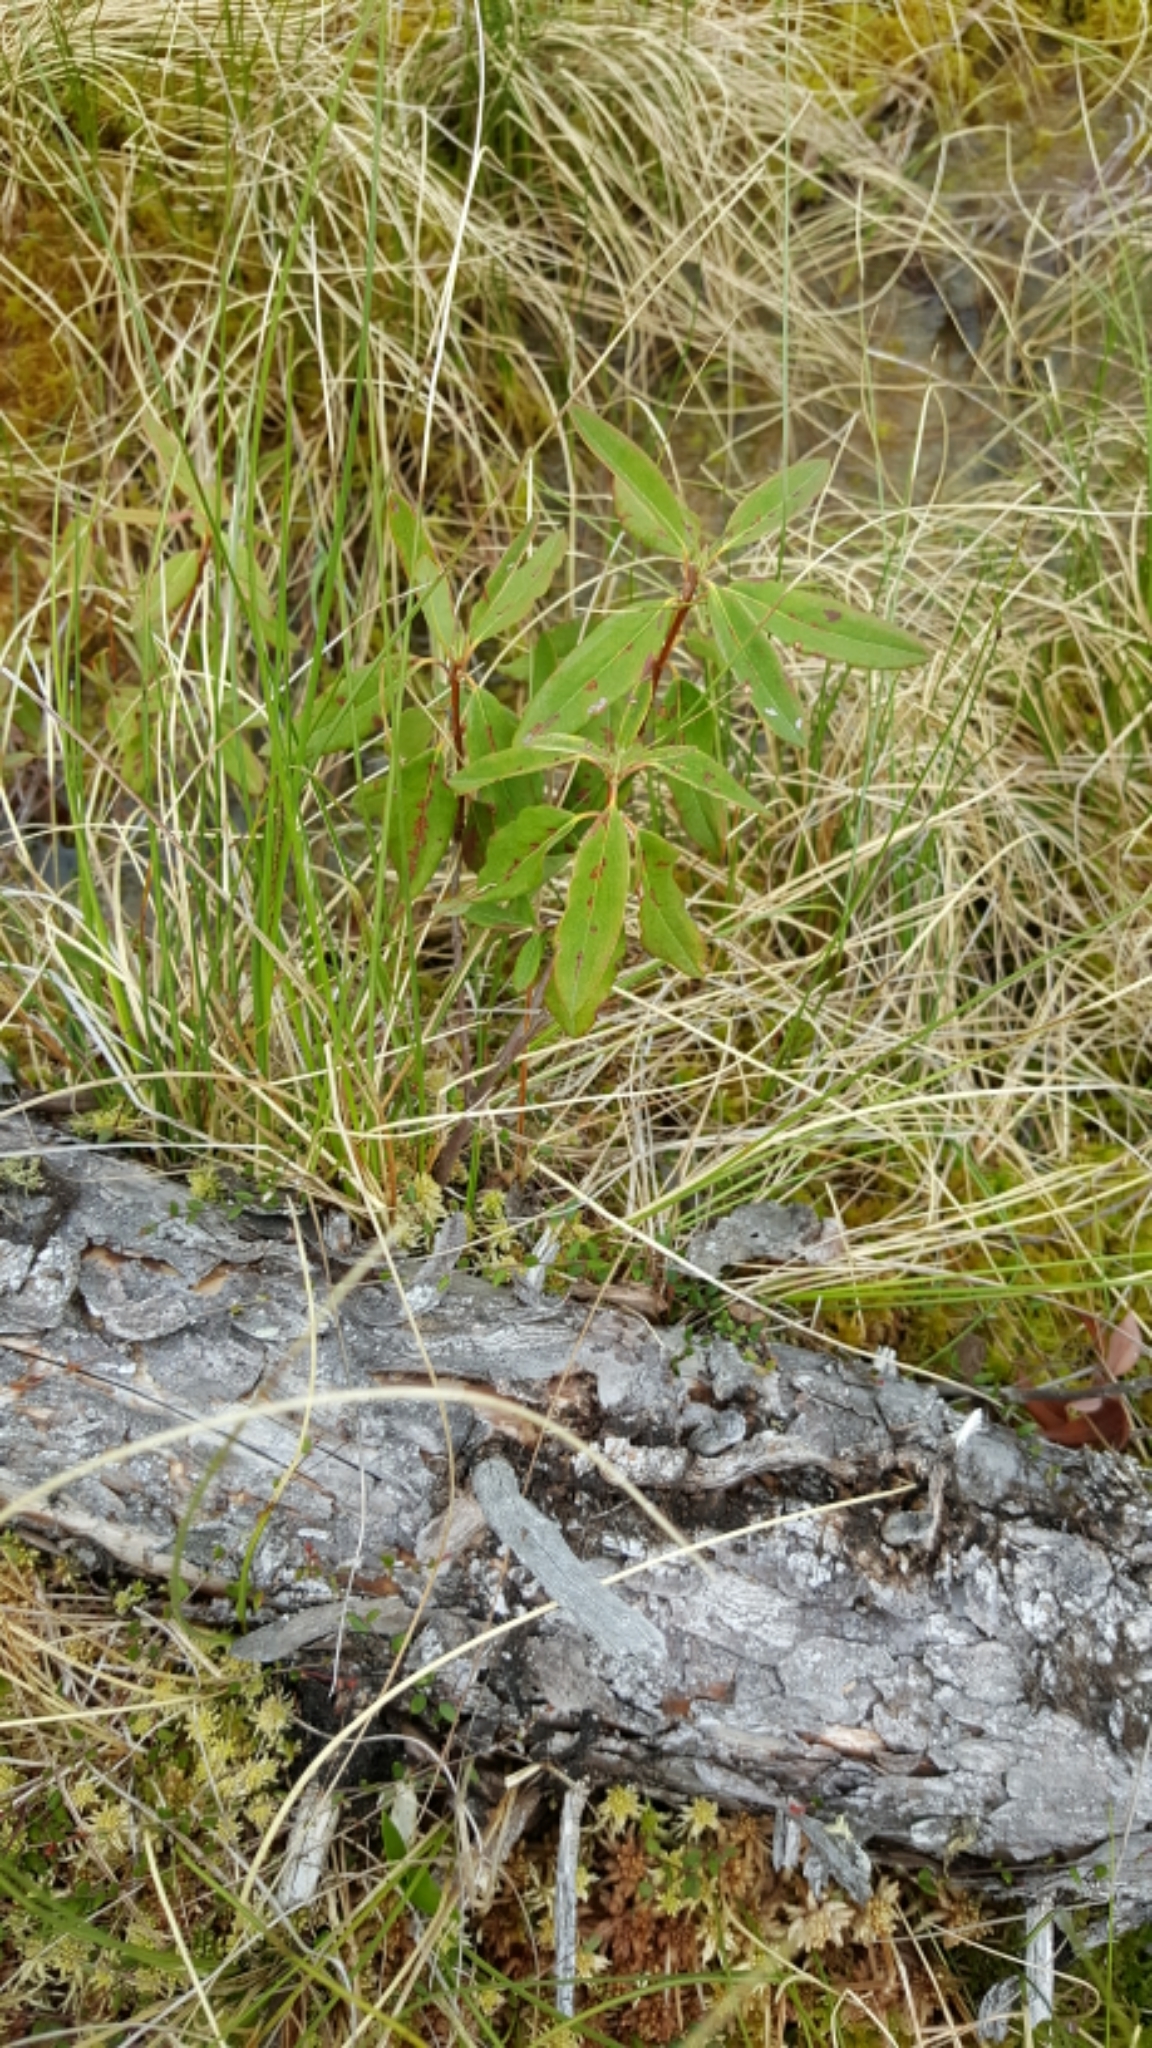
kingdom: Plantae
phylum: Tracheophyta
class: Magnoliopsida
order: Ericales
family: Ericaceae
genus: Kalmia
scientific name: Kalmia angustifolia
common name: Sheep-laurel
